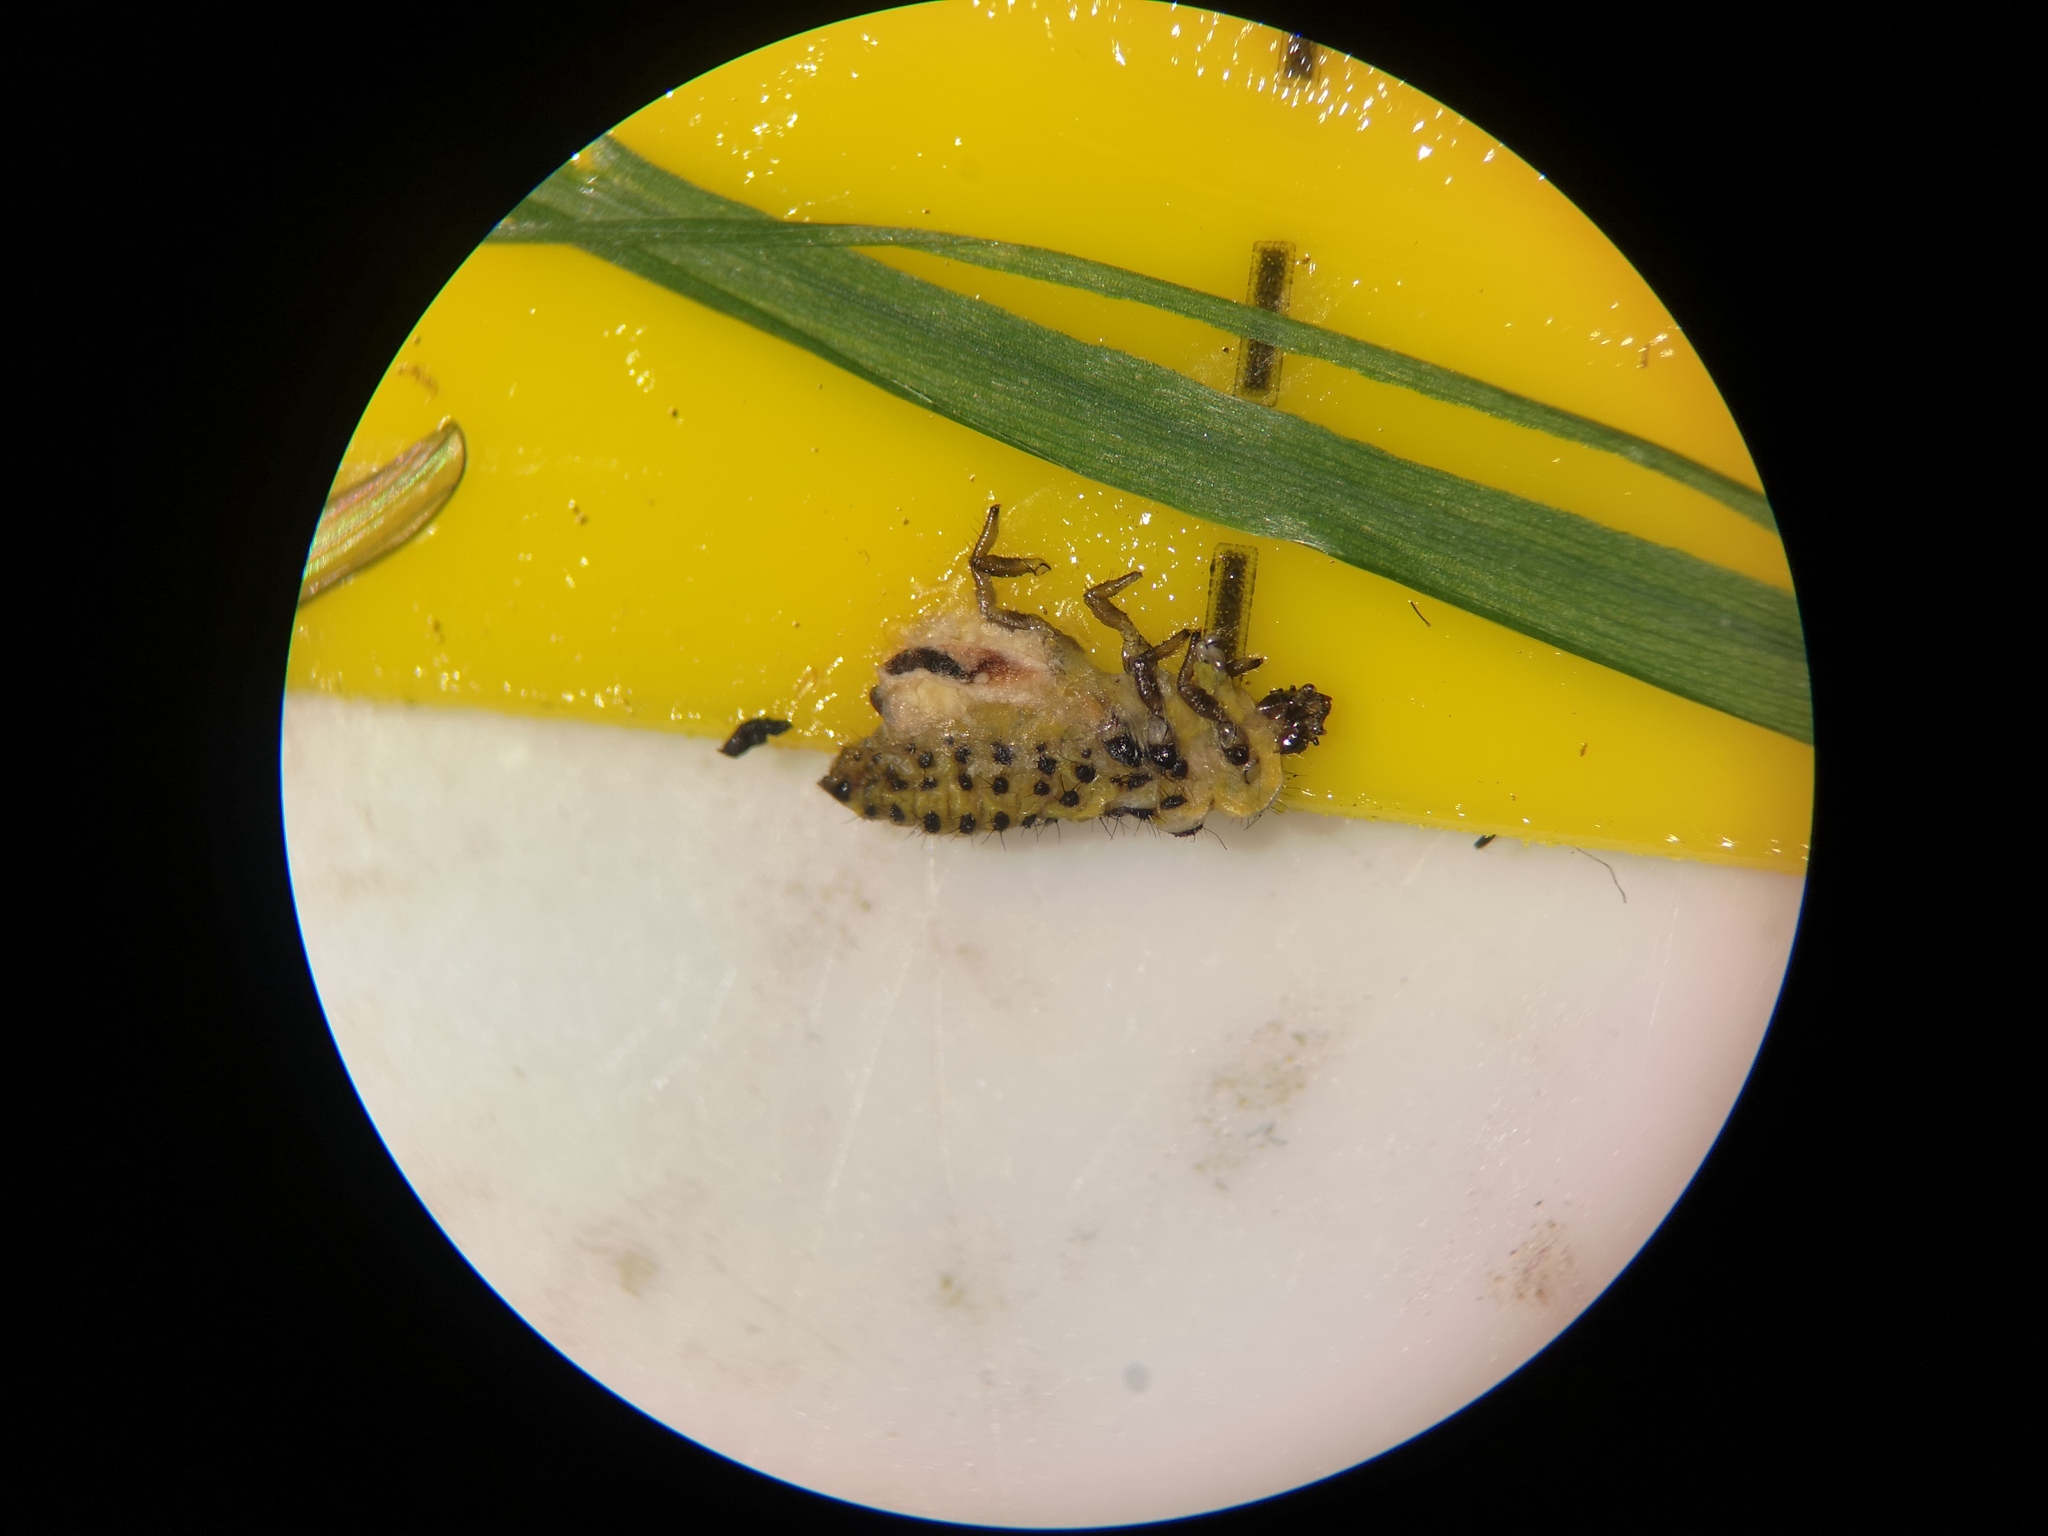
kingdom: Animalia
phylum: Arthropoda
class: Insecta
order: Coleoptera
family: Coccinellidae
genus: Psyllobora
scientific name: Psyllobora vigintiduopunctata
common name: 22-spot ladybird
